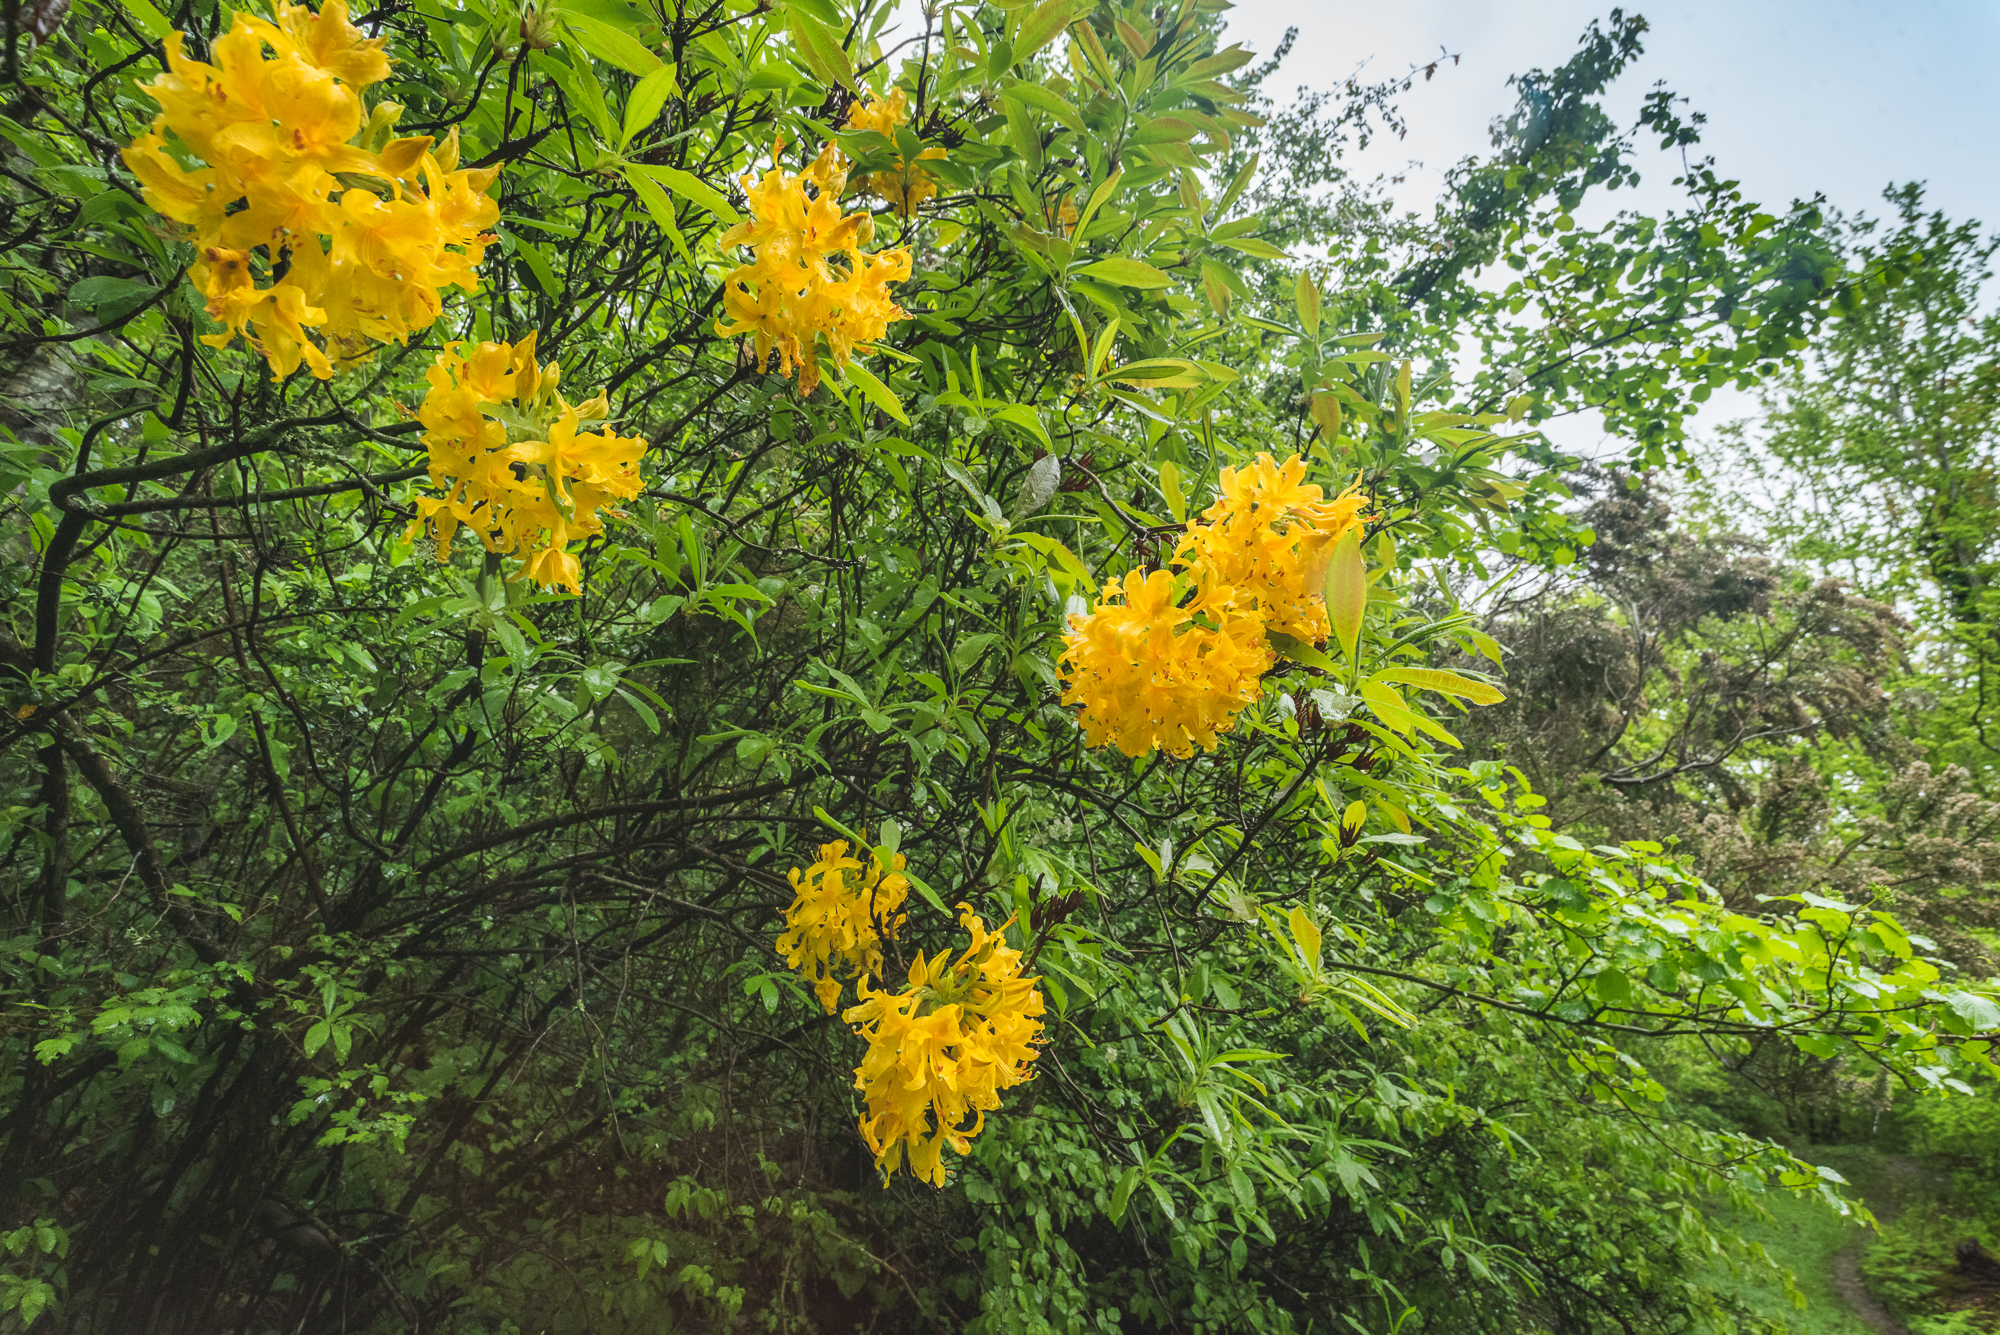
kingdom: Plantae
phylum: Tracheophyta
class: Magnoliopsida
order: Ericales
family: Ericaceae
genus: Rhododendron
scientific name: Rhododendron luteum
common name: Yellow azalea
